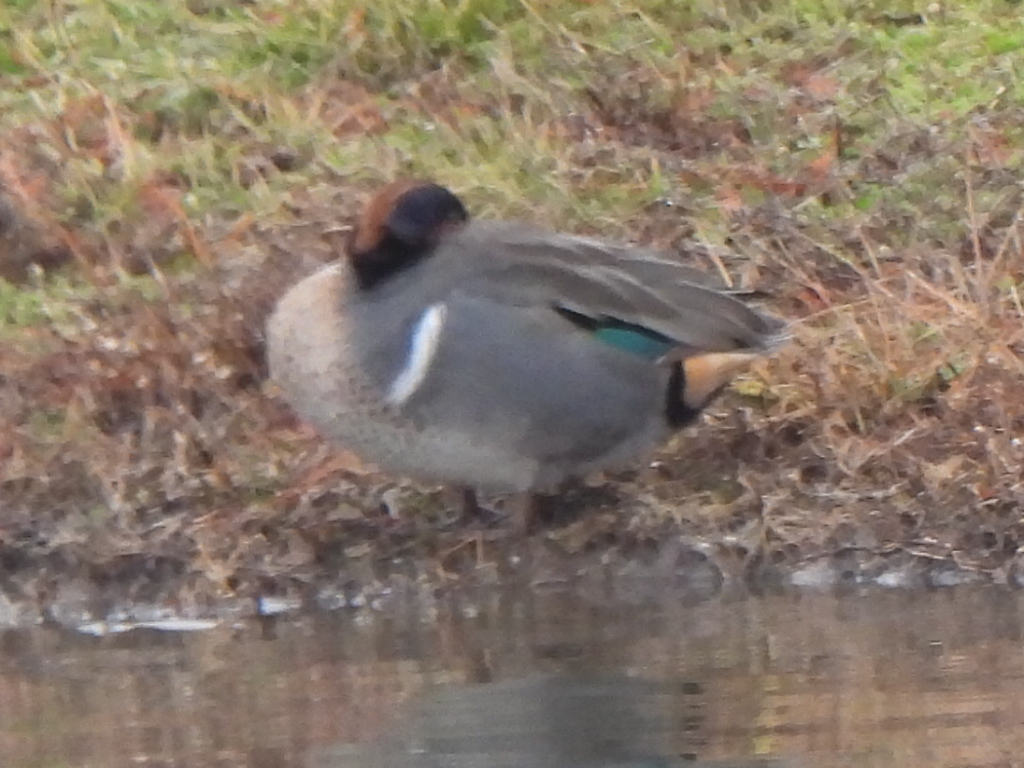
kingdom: Animalia
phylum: Chordata
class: Aves
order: Anseriformes
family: Anatidae
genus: Anas
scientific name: Anas crecca
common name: Eurasian teal
